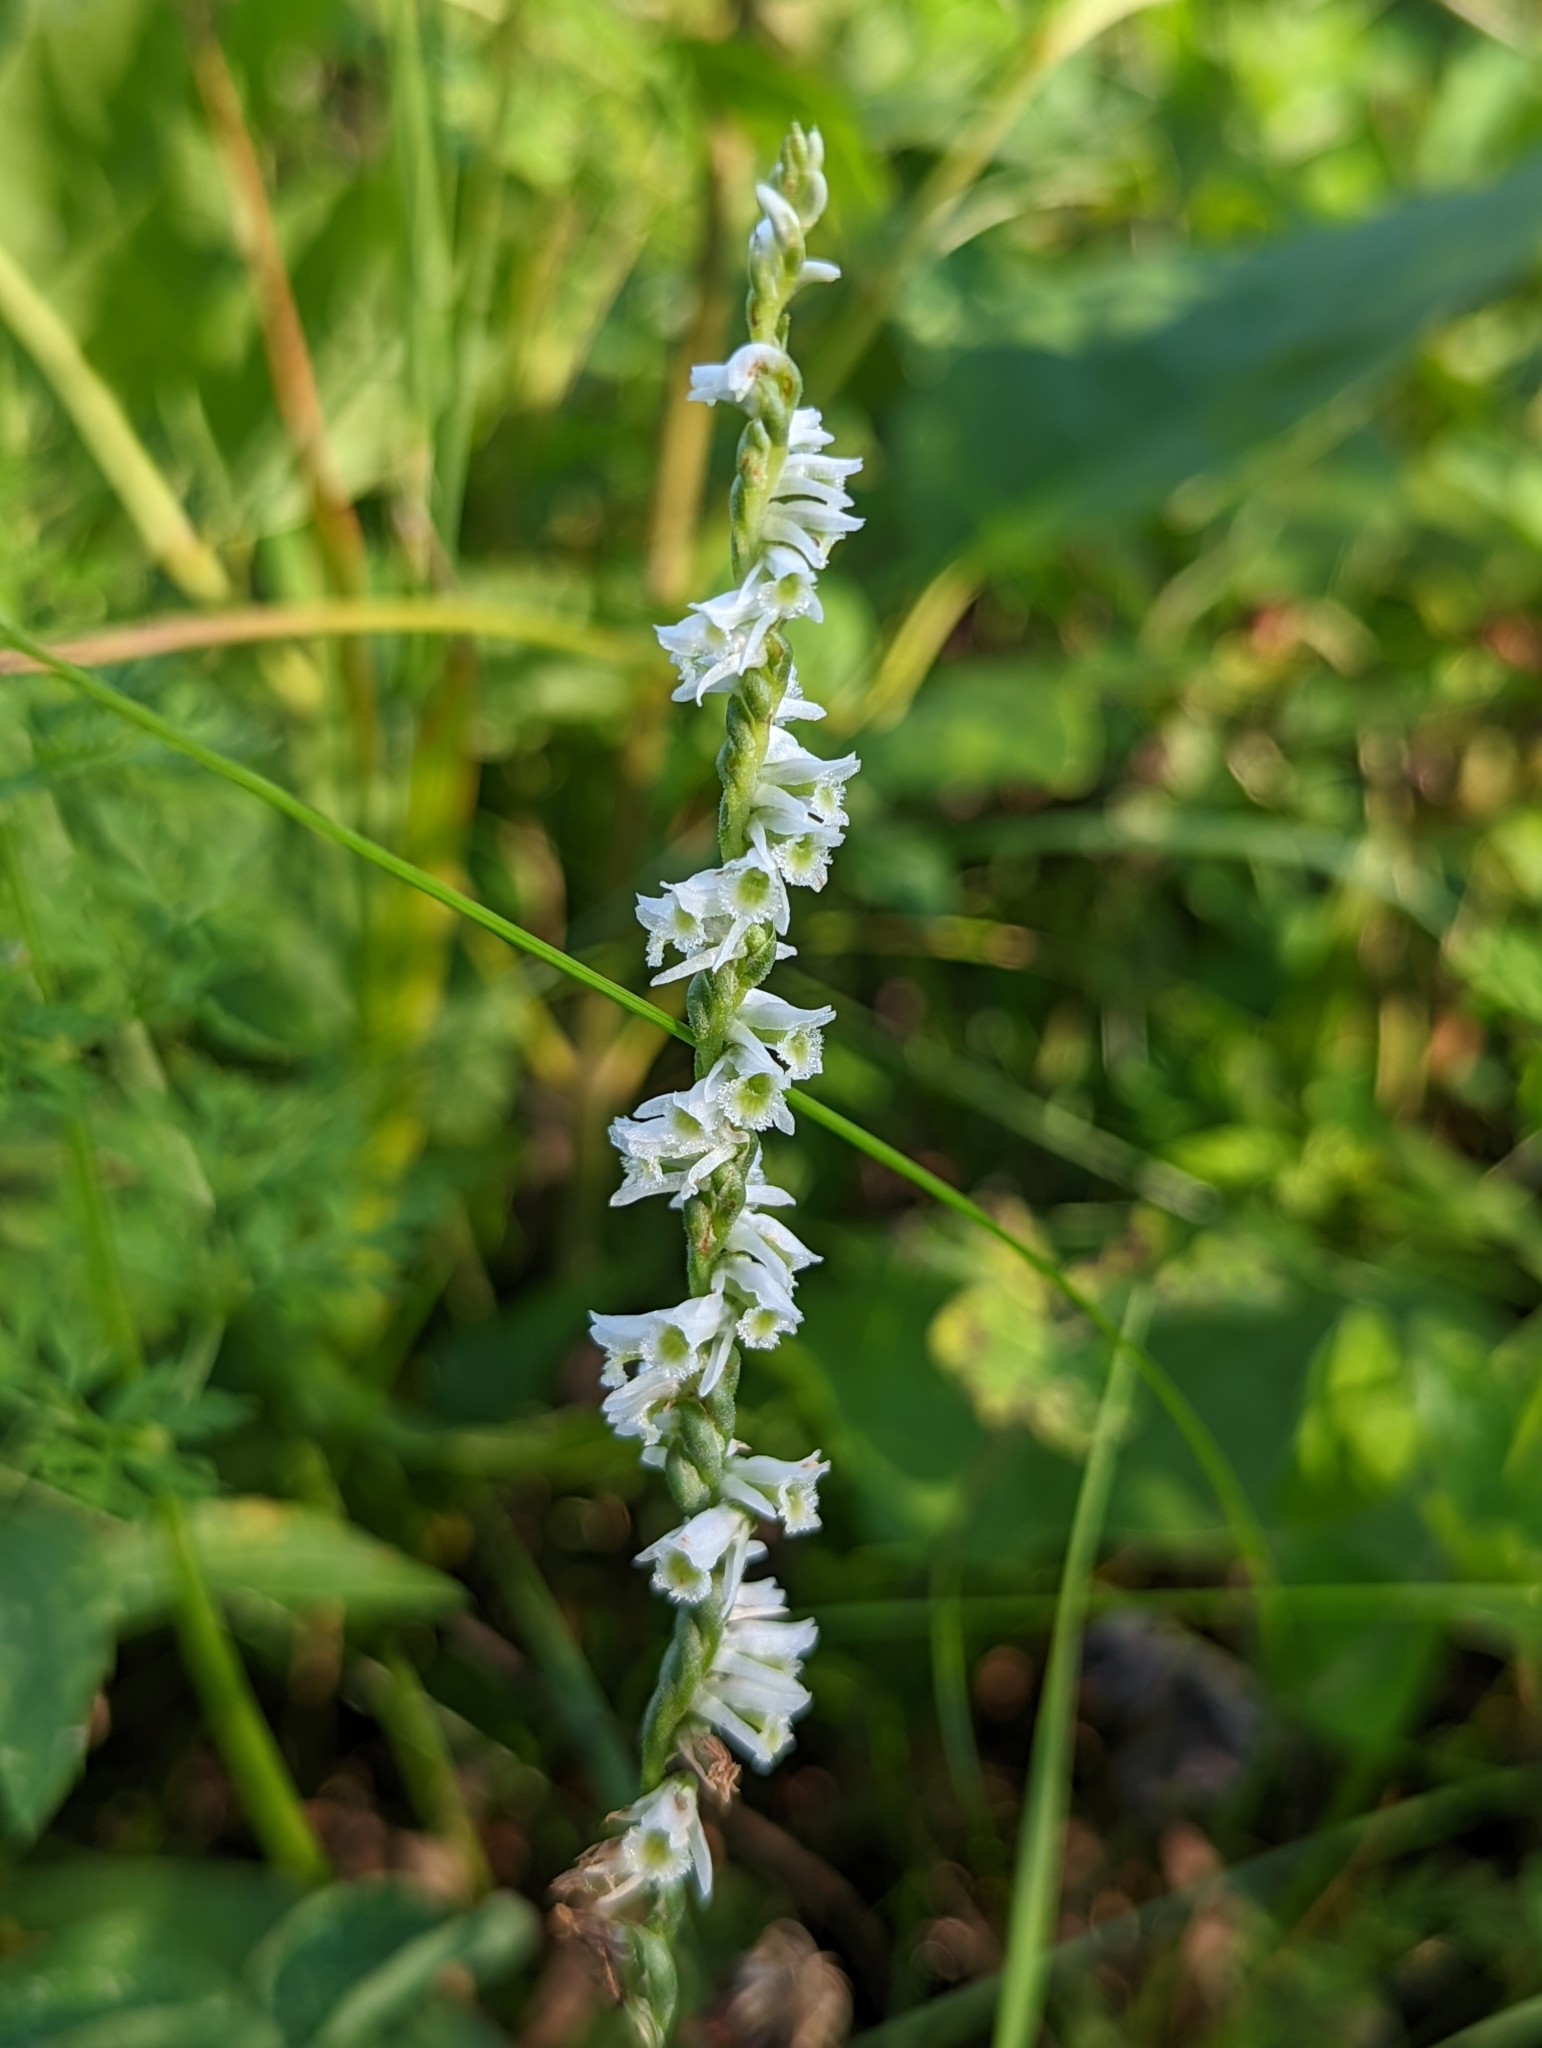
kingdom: Plantae
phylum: Tracheophyta
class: Liliopsida
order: Asparagales
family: Orchidaceae
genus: Spiranthes
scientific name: Spiranthes lacera
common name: Northern slender ladies'-tresses
